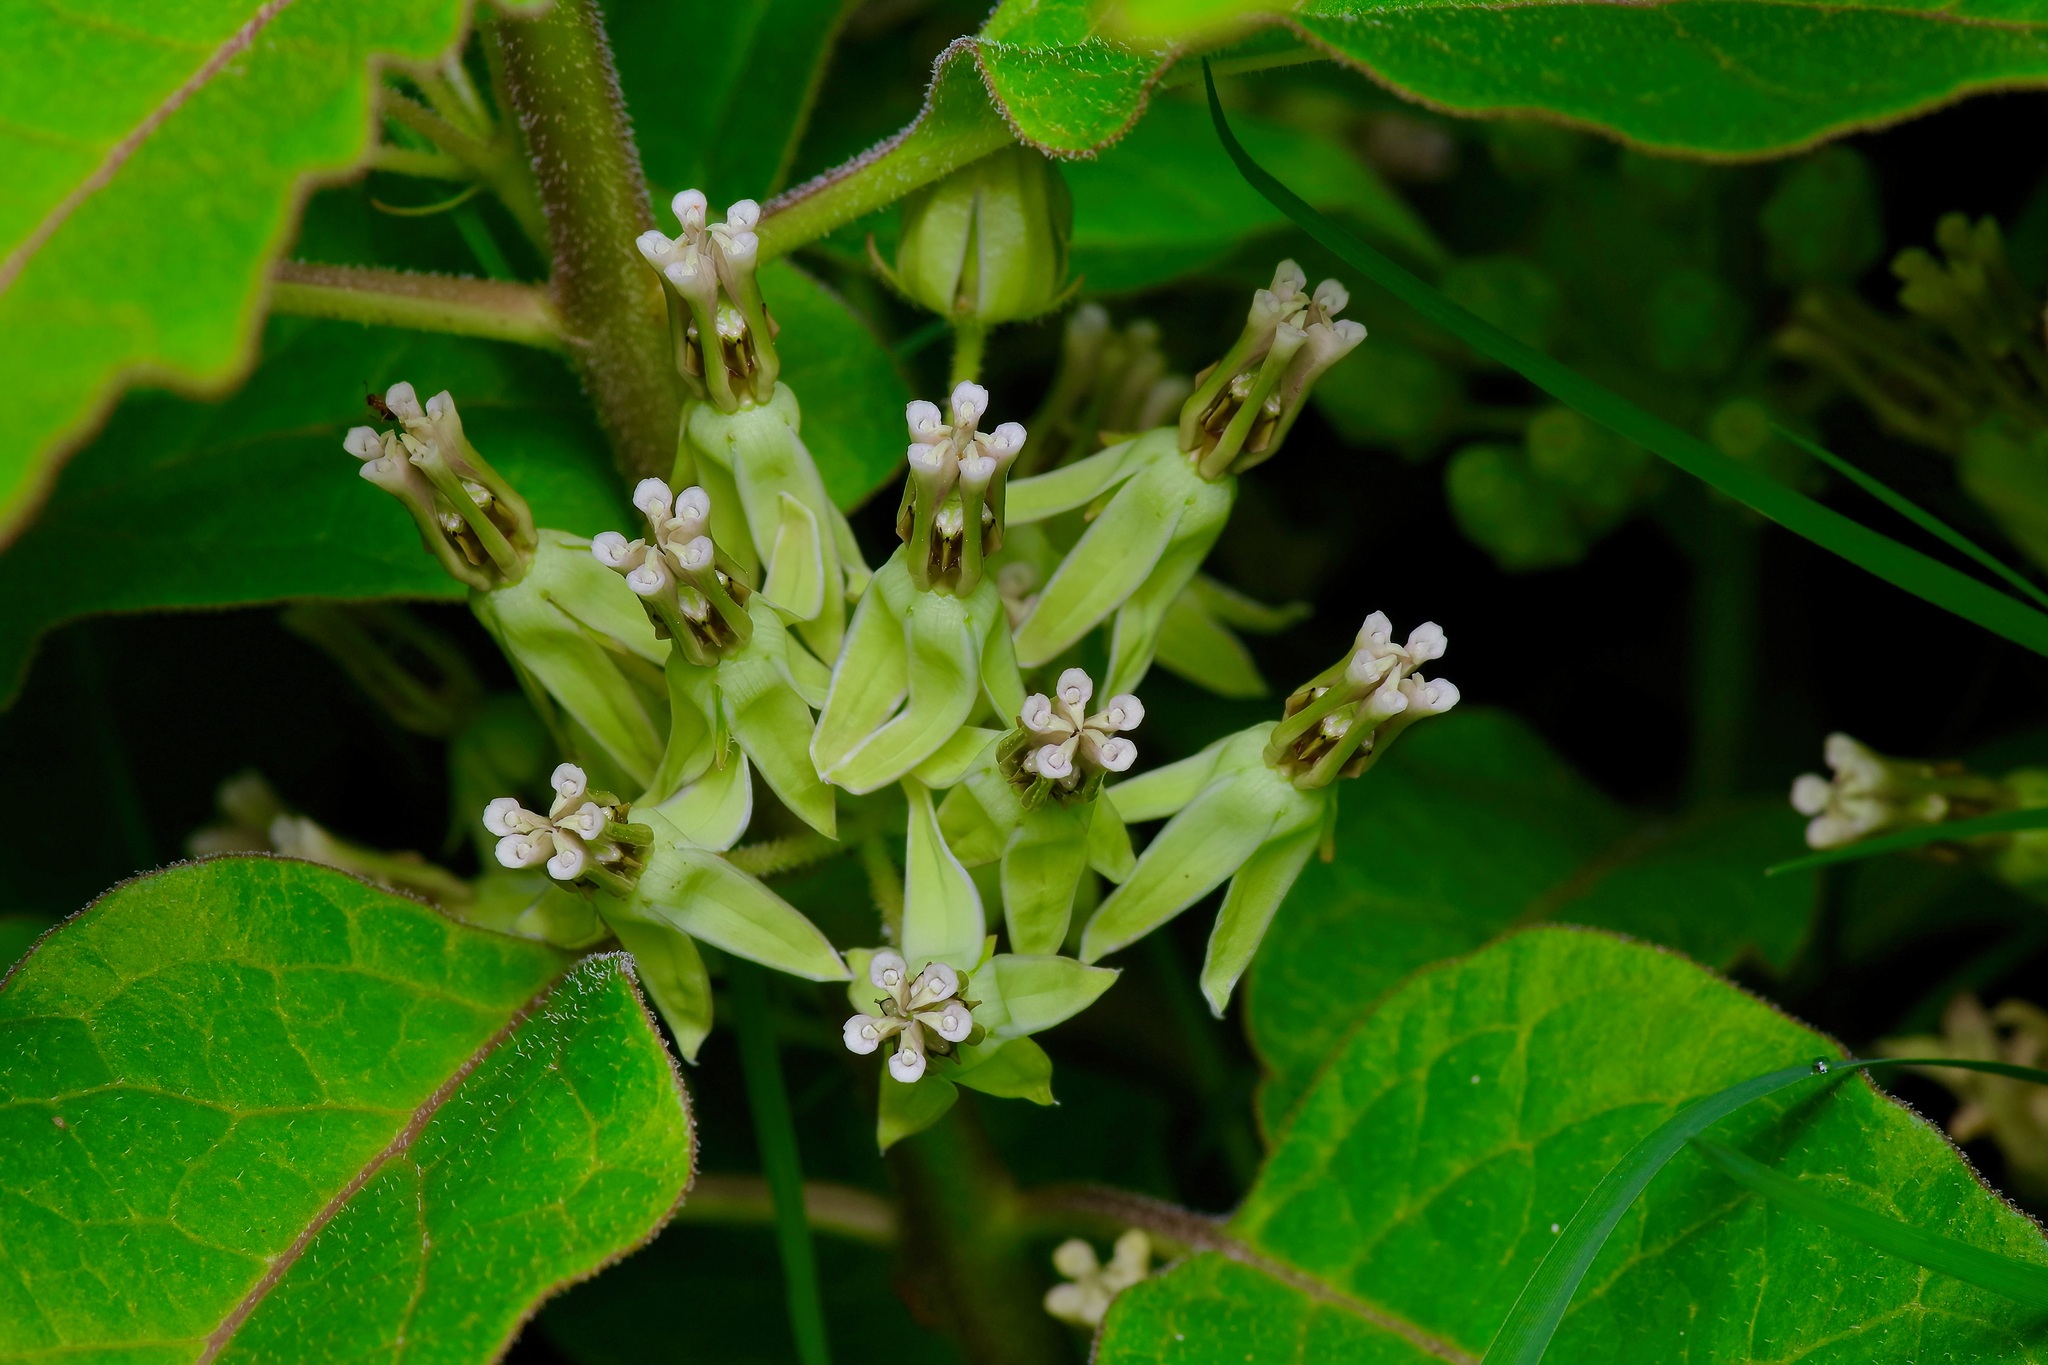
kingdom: Plantae
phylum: Tracheophyta
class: Magnoliopsida
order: Gentianales
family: Apocynaceae
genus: Asclepias
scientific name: Asclepias oenotheroides
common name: Zizotes milkweed
